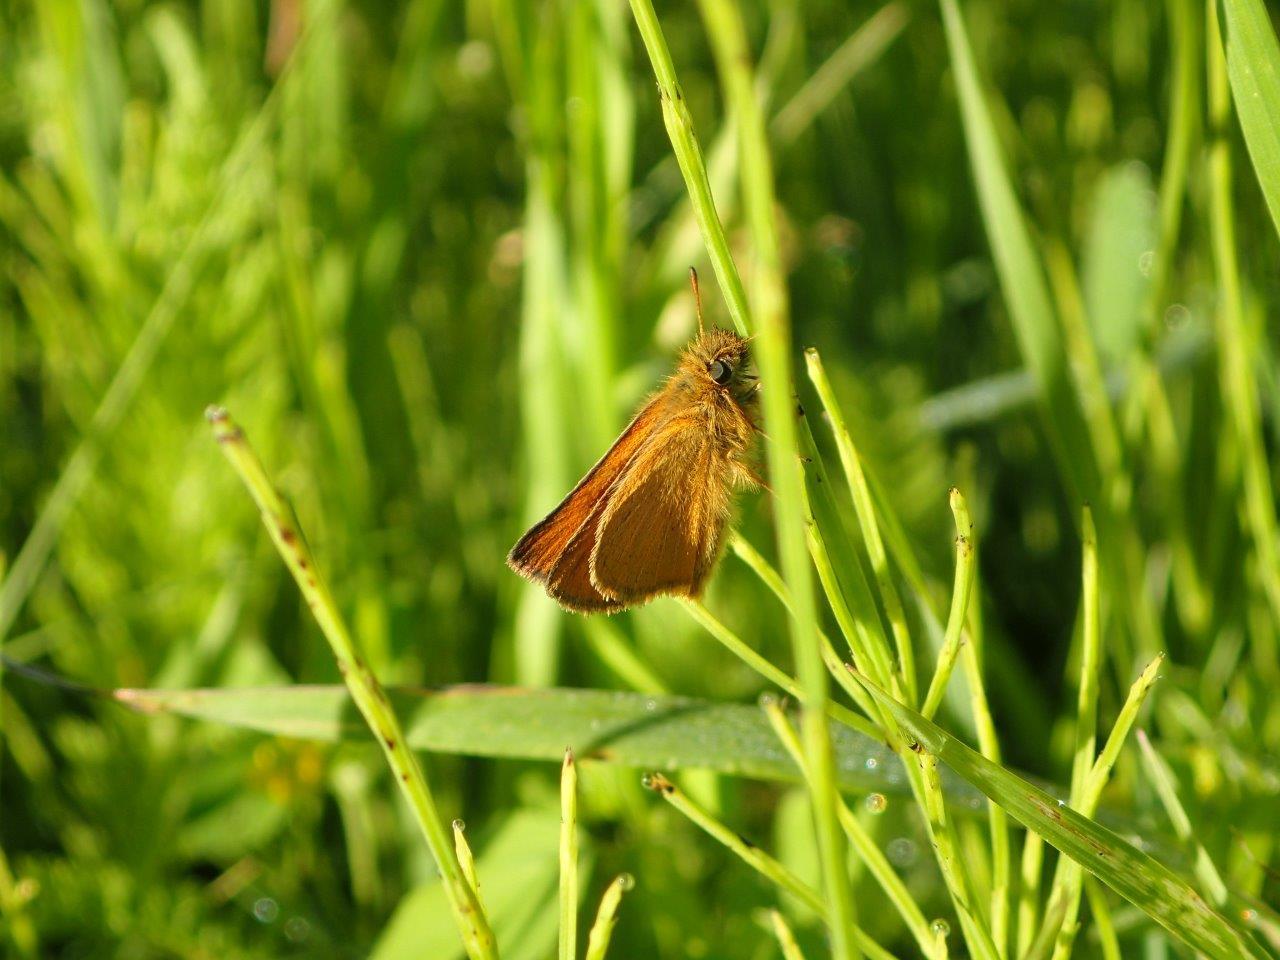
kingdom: Animalia
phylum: Arthropoda
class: Insecta
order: Lepidoptera
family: Hesperiidae
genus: Thymelicus
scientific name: Thymelicus lineola
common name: Essex skipper
